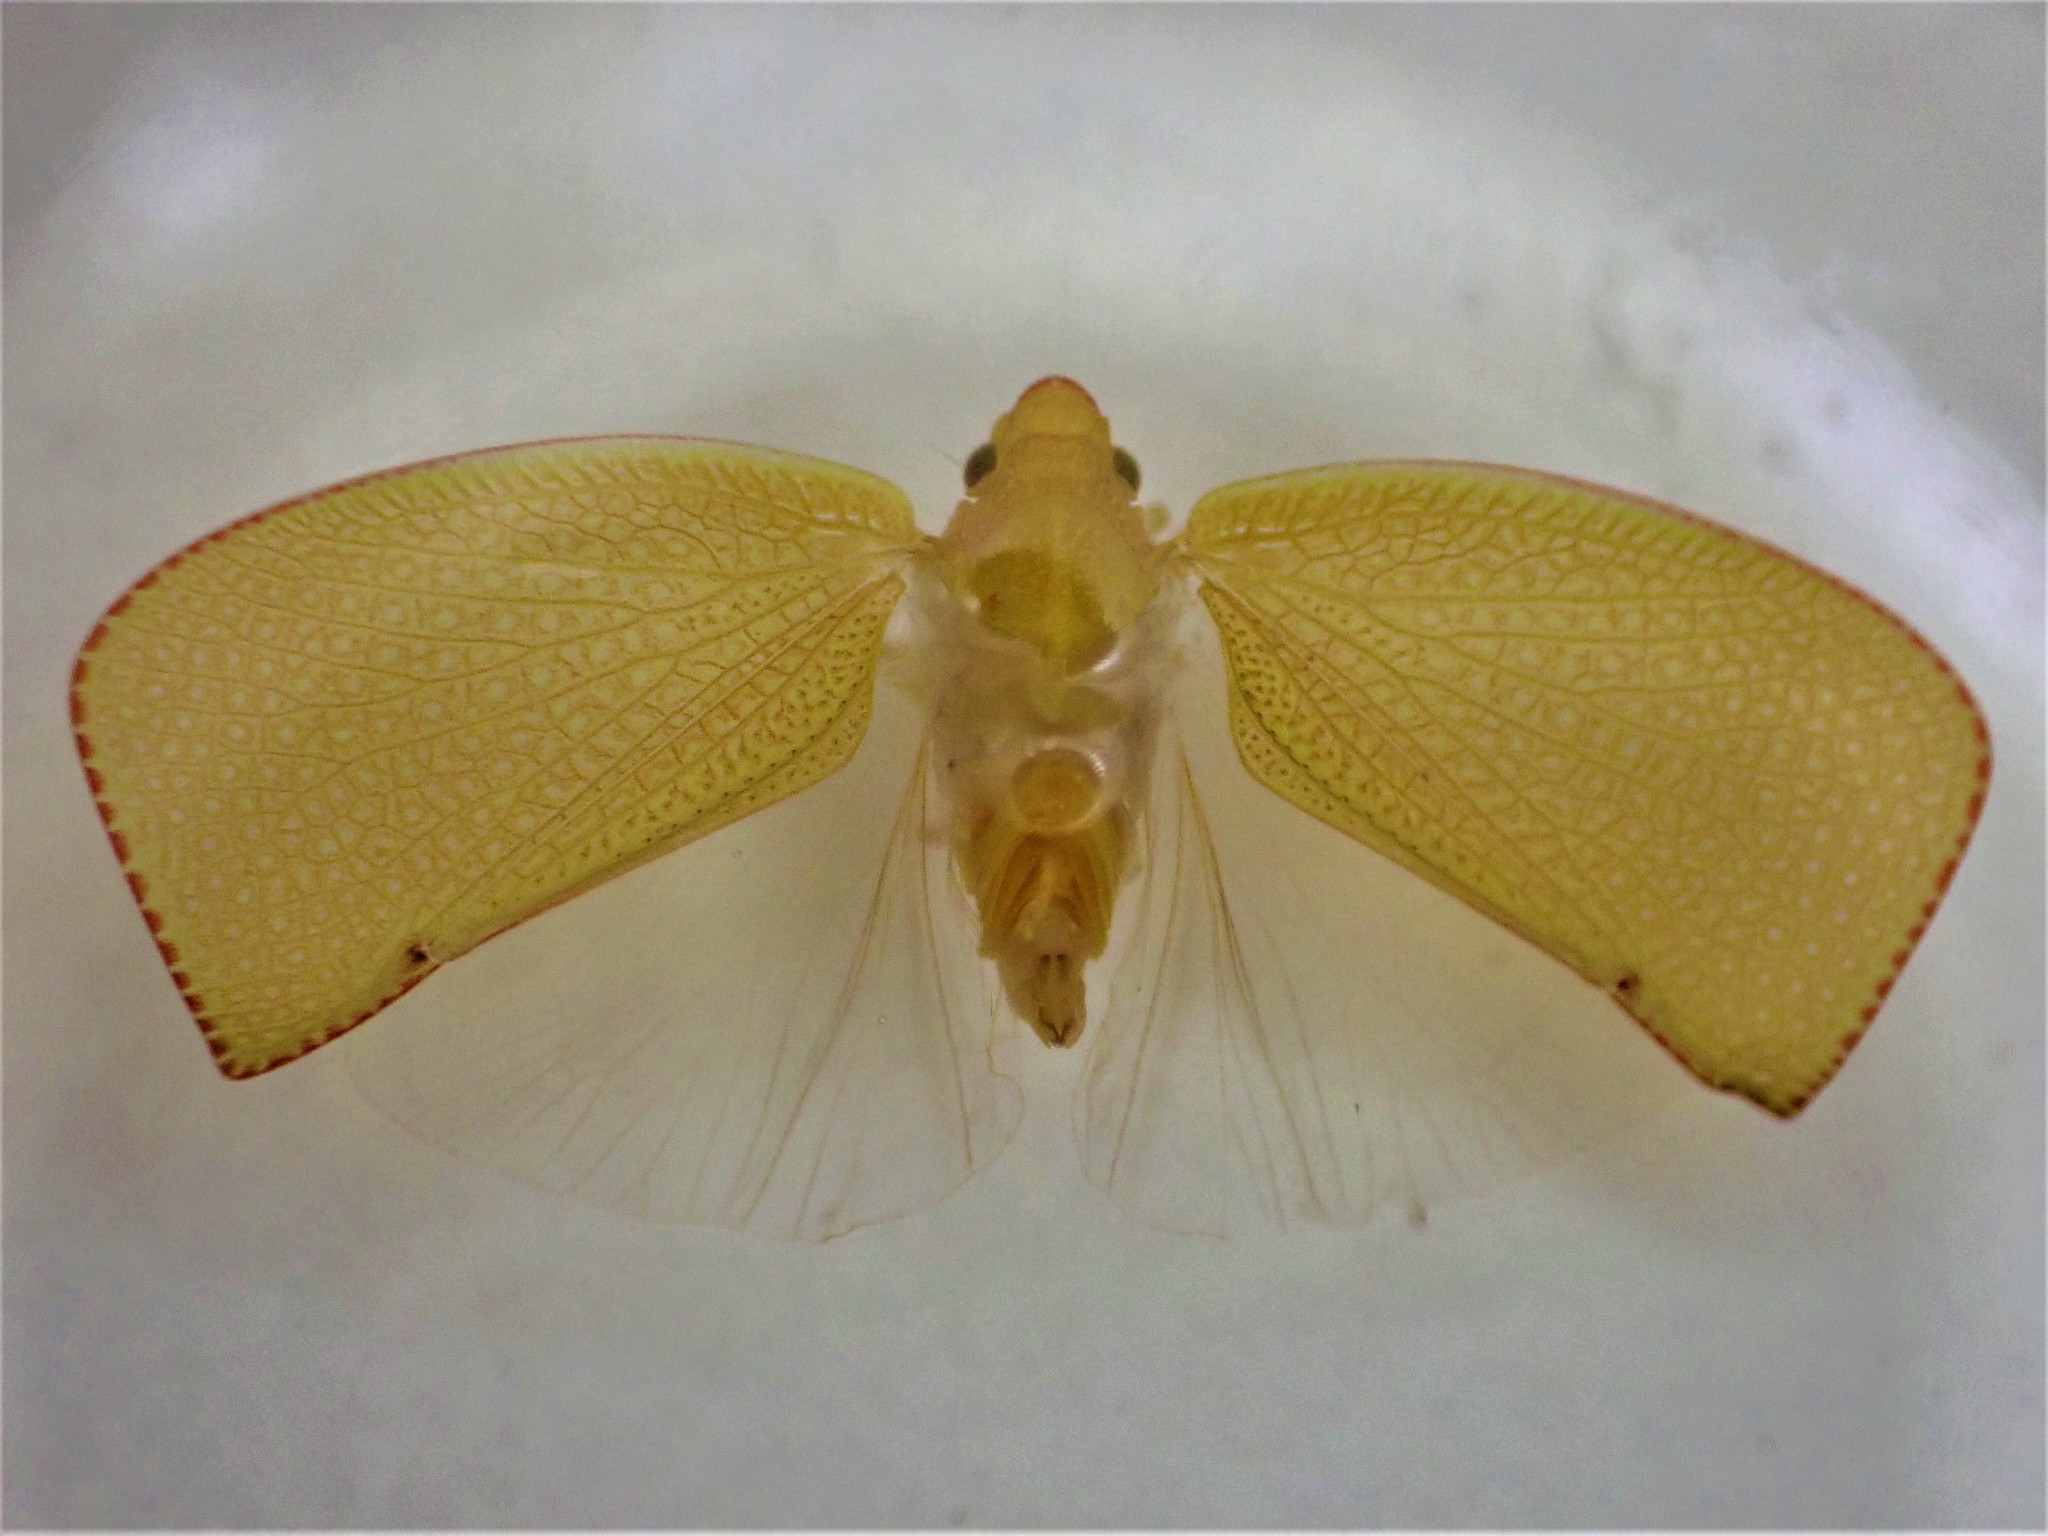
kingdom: Animalia
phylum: Arthropoda
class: Insecta
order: Hemiptera
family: Flatidae
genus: Siphanta
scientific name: Siphanta acuta
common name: Torpedo bug
